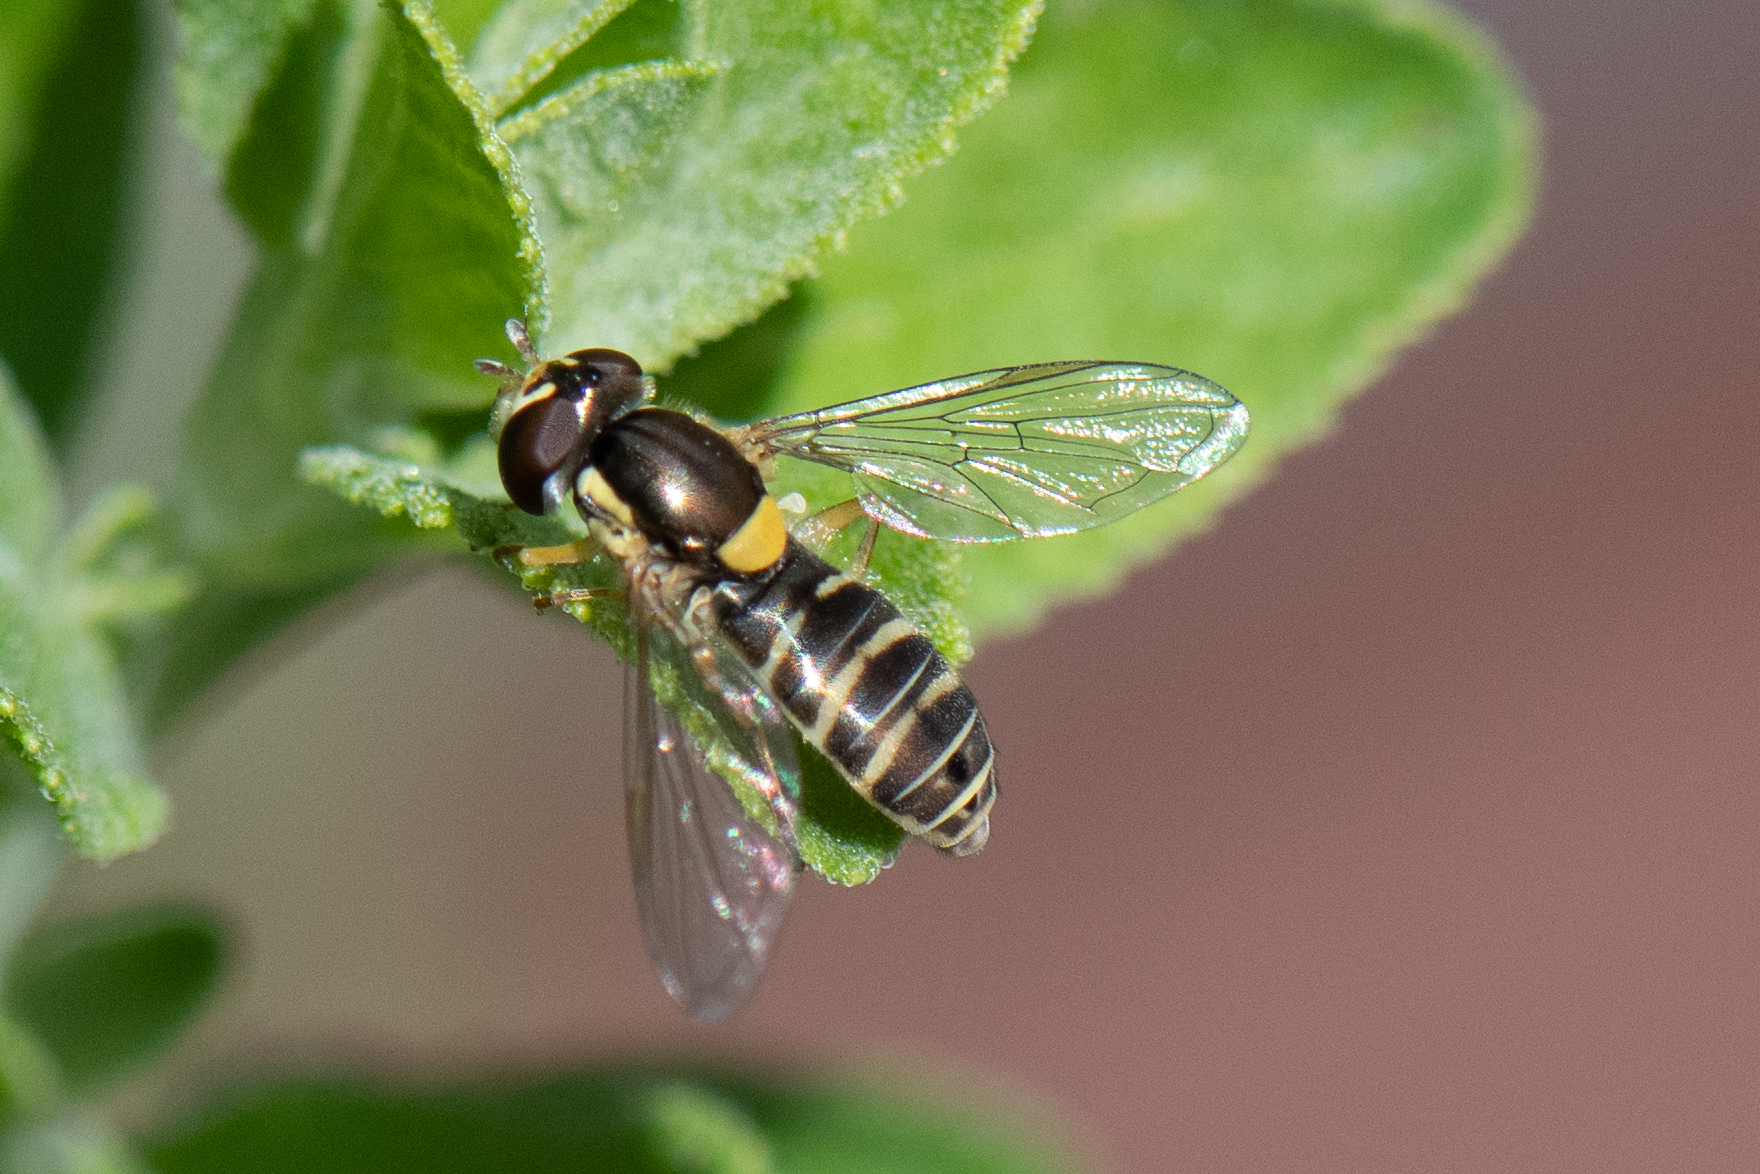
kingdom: Animalia
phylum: Arthropoda
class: Insecta
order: Diptera
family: Syrphidae
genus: Sphaerophoria
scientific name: Sphaerophoria sulphuripes
